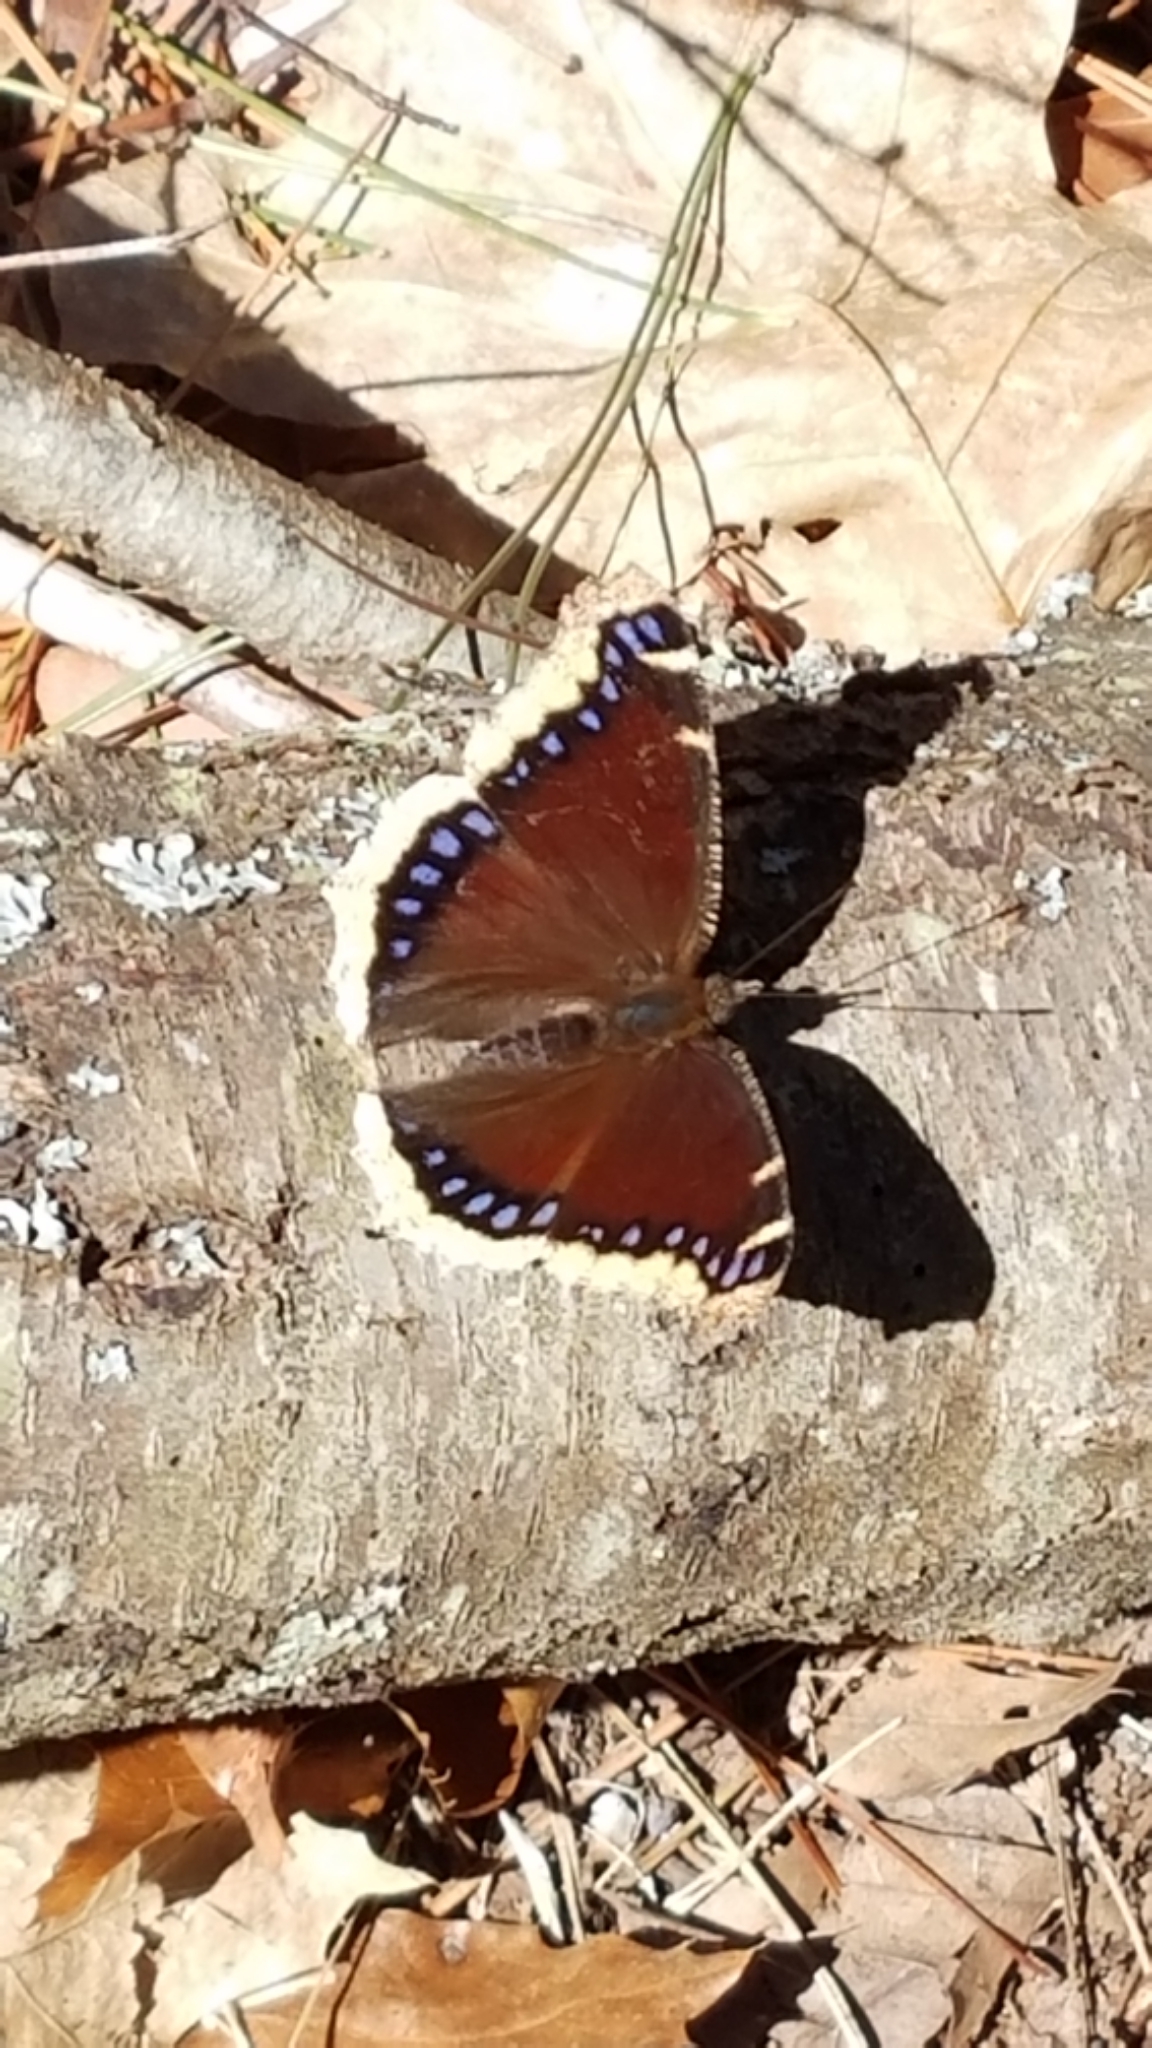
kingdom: Animalia
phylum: Arthropoda
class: Insecta
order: Lepidoptera
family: Nymphalidae
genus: Nymphalis
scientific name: Nymphalis antiopa
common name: Camberwell beauty
